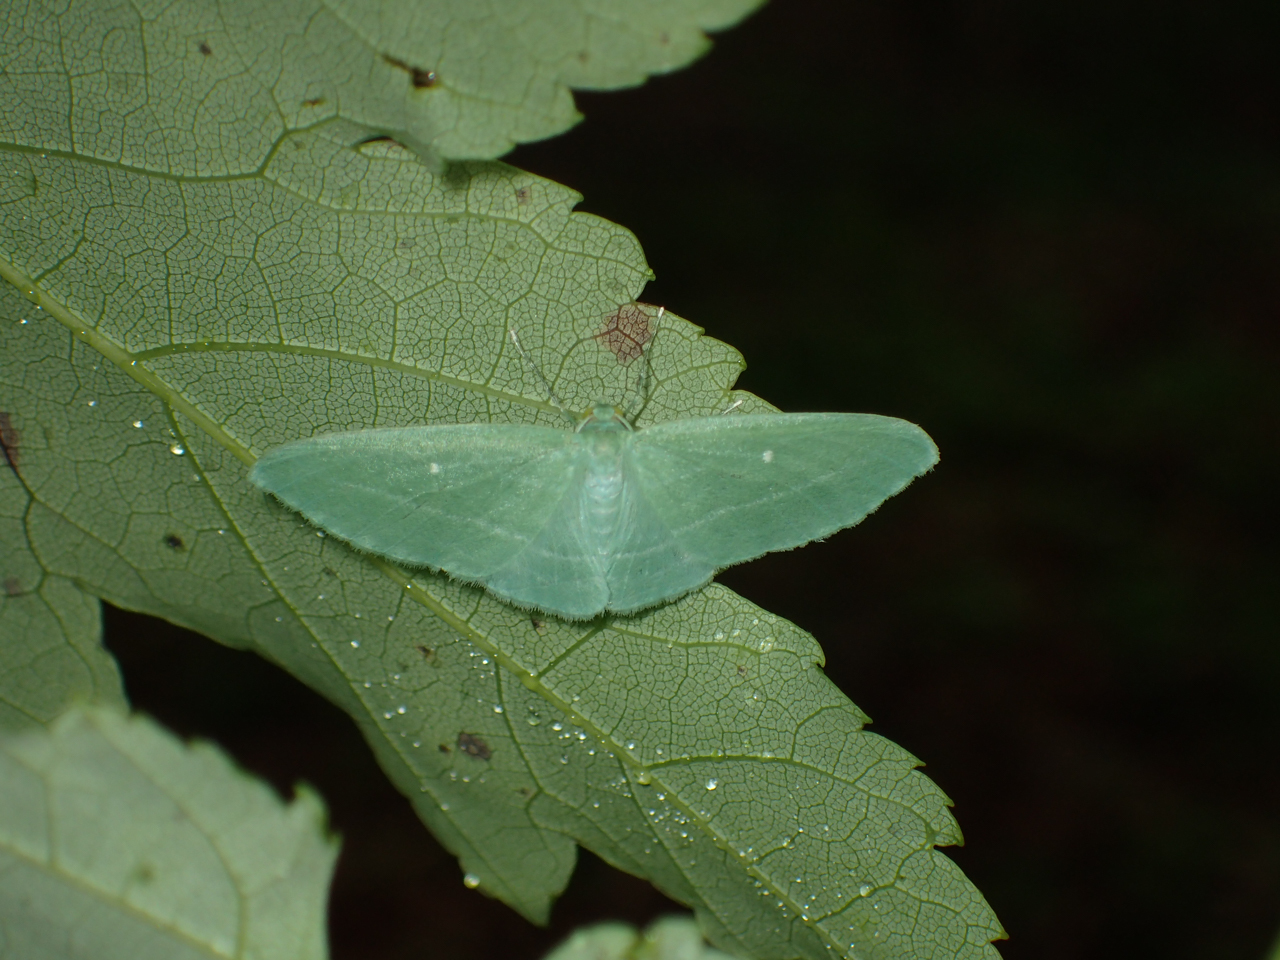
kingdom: Animalia
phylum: Arthropoda
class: Insecta
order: Lepidoptera
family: Geometridae
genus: Dyspteris
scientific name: Dyspteris abortivaria
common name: Bad-wing
